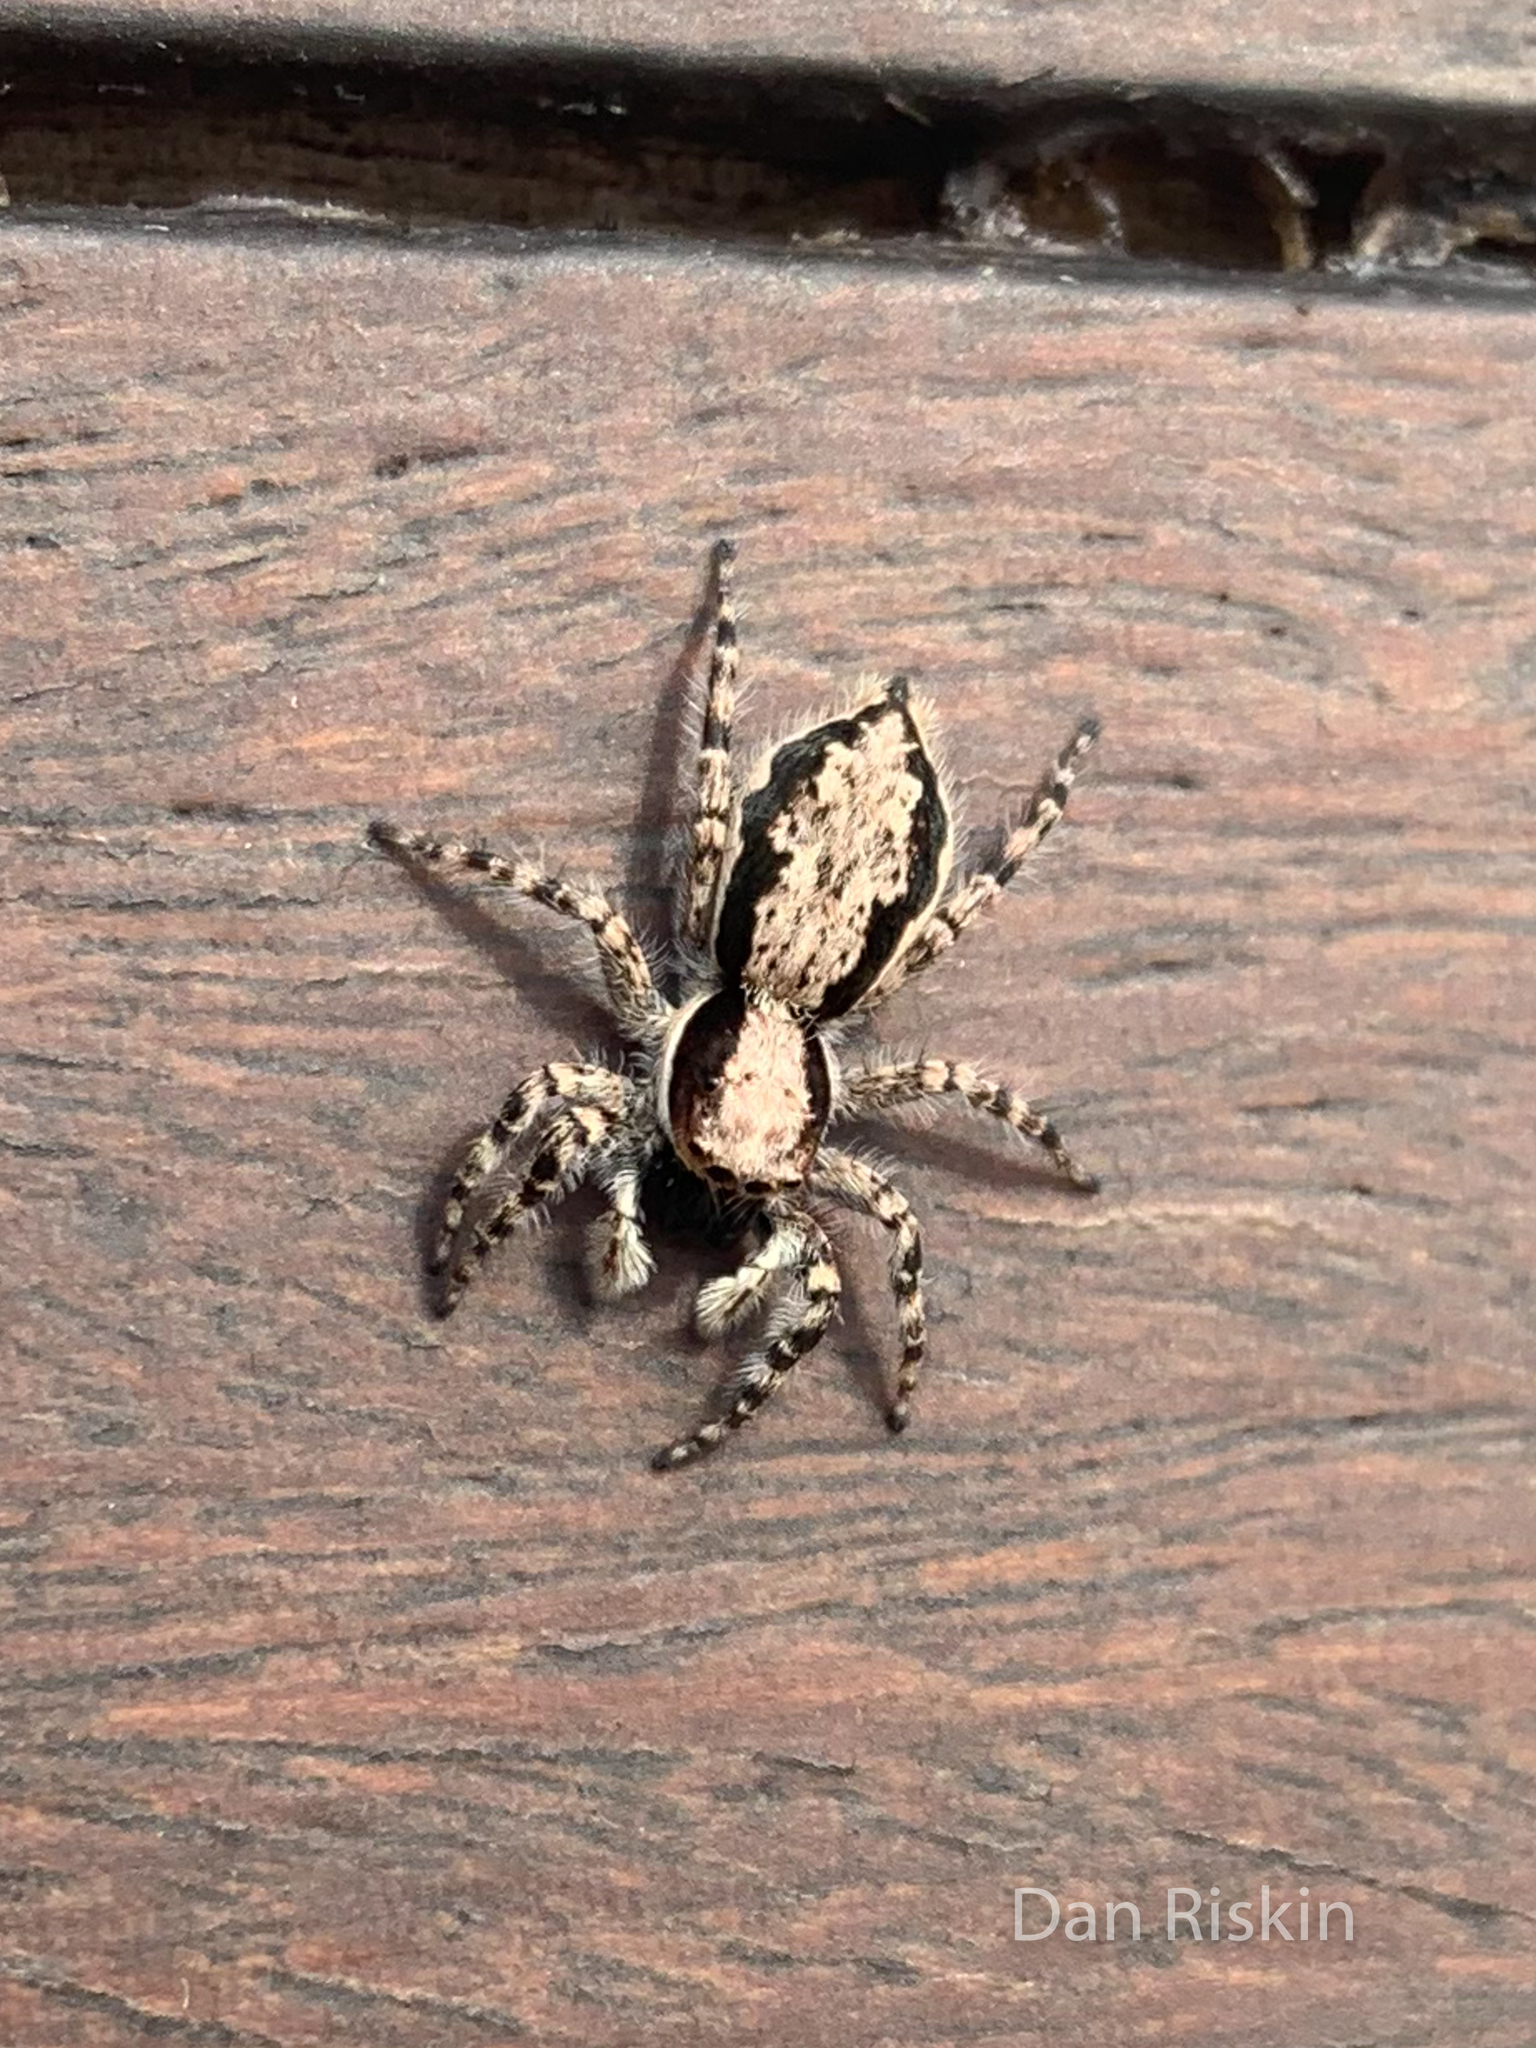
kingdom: Animalia
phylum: Arthropoda
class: Arachnida
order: Araneae
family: Salticidae
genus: Menemerus
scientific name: Menemerus bivittatus
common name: Gray wall jumper
